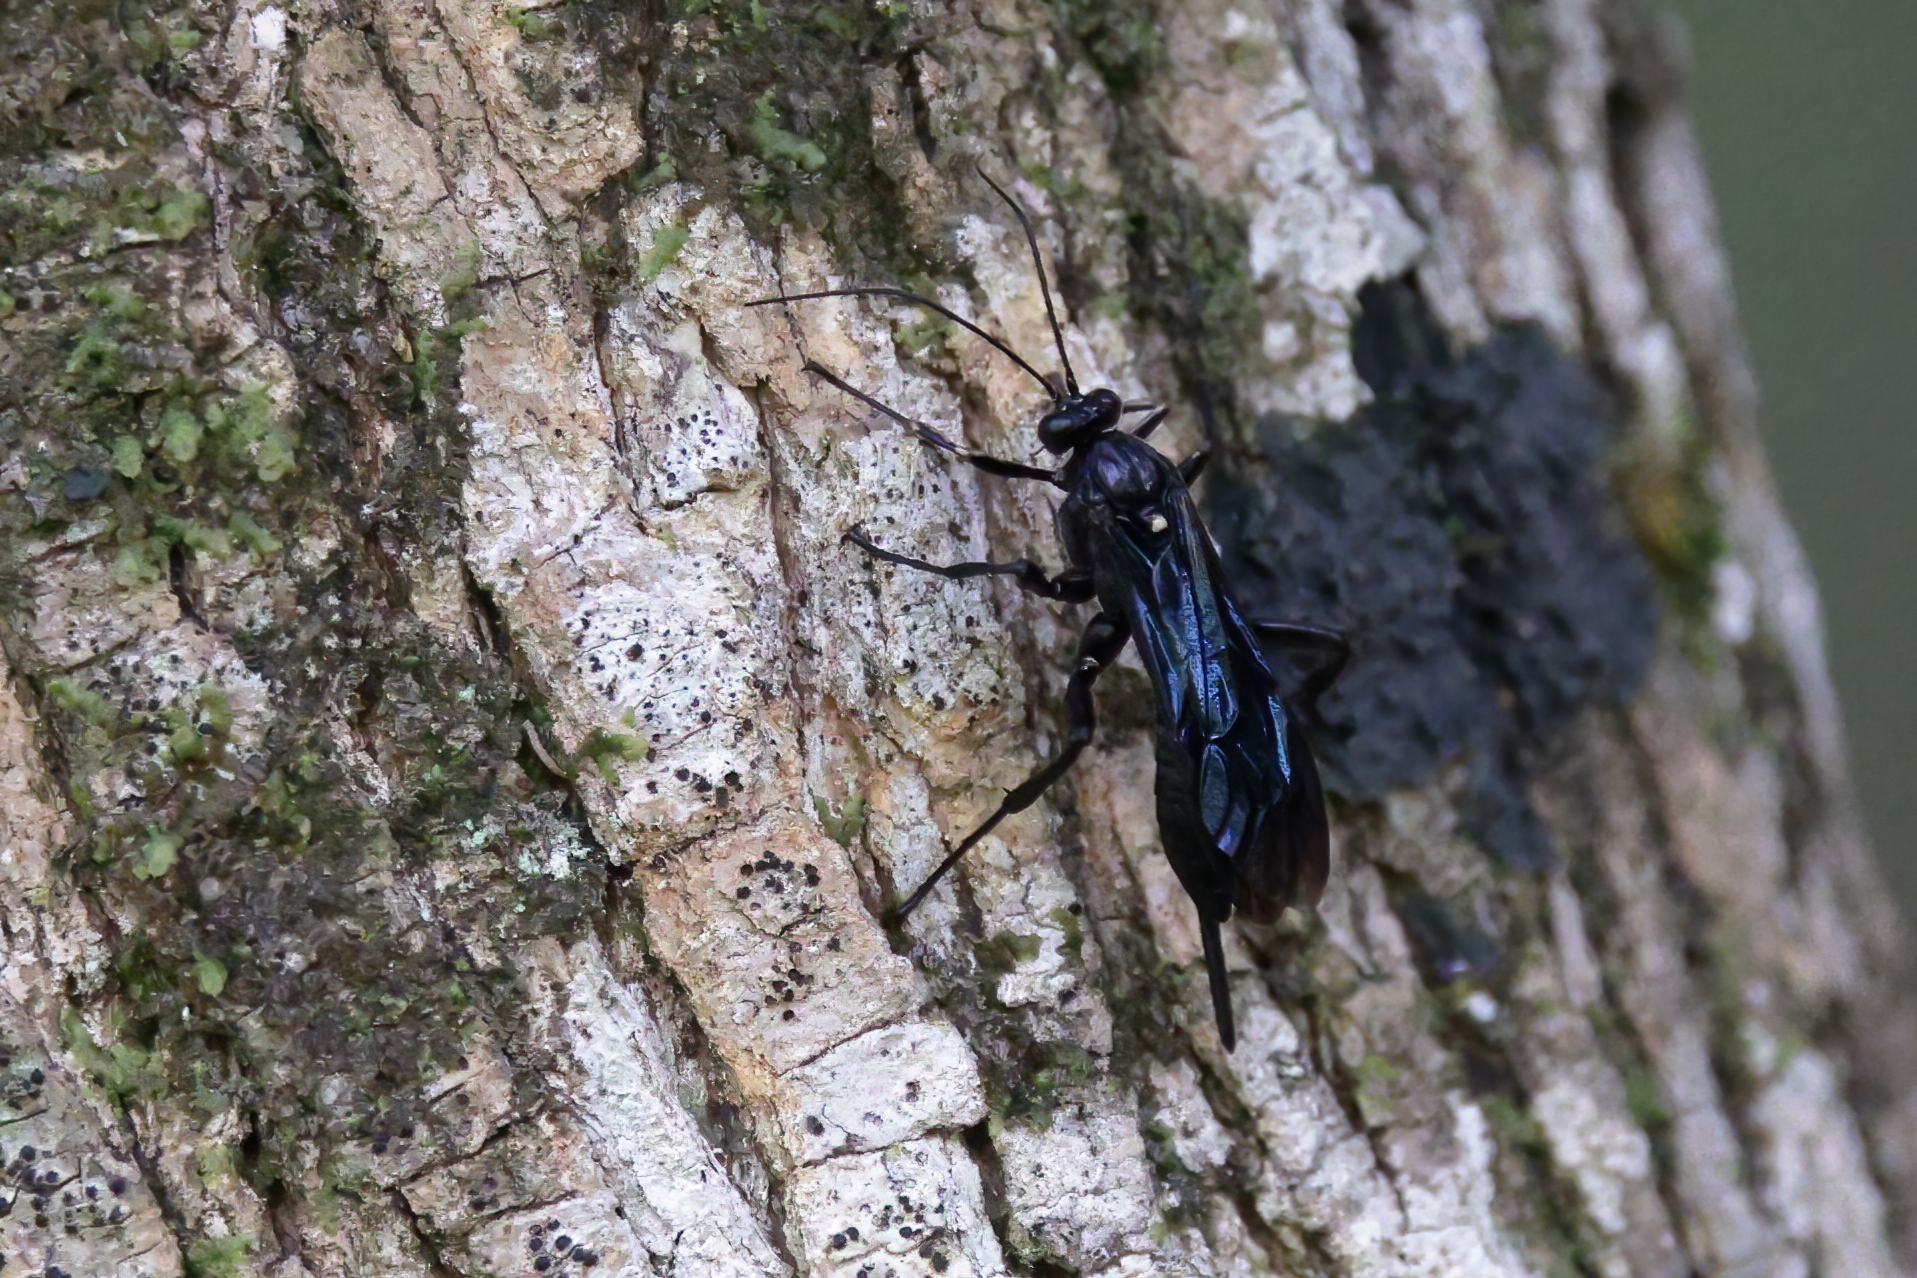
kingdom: Animalia
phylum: Arthropoda
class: Insecta
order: Hymenoptera
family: Ichneumonidae
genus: Pimpla
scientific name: Pimpla maura
